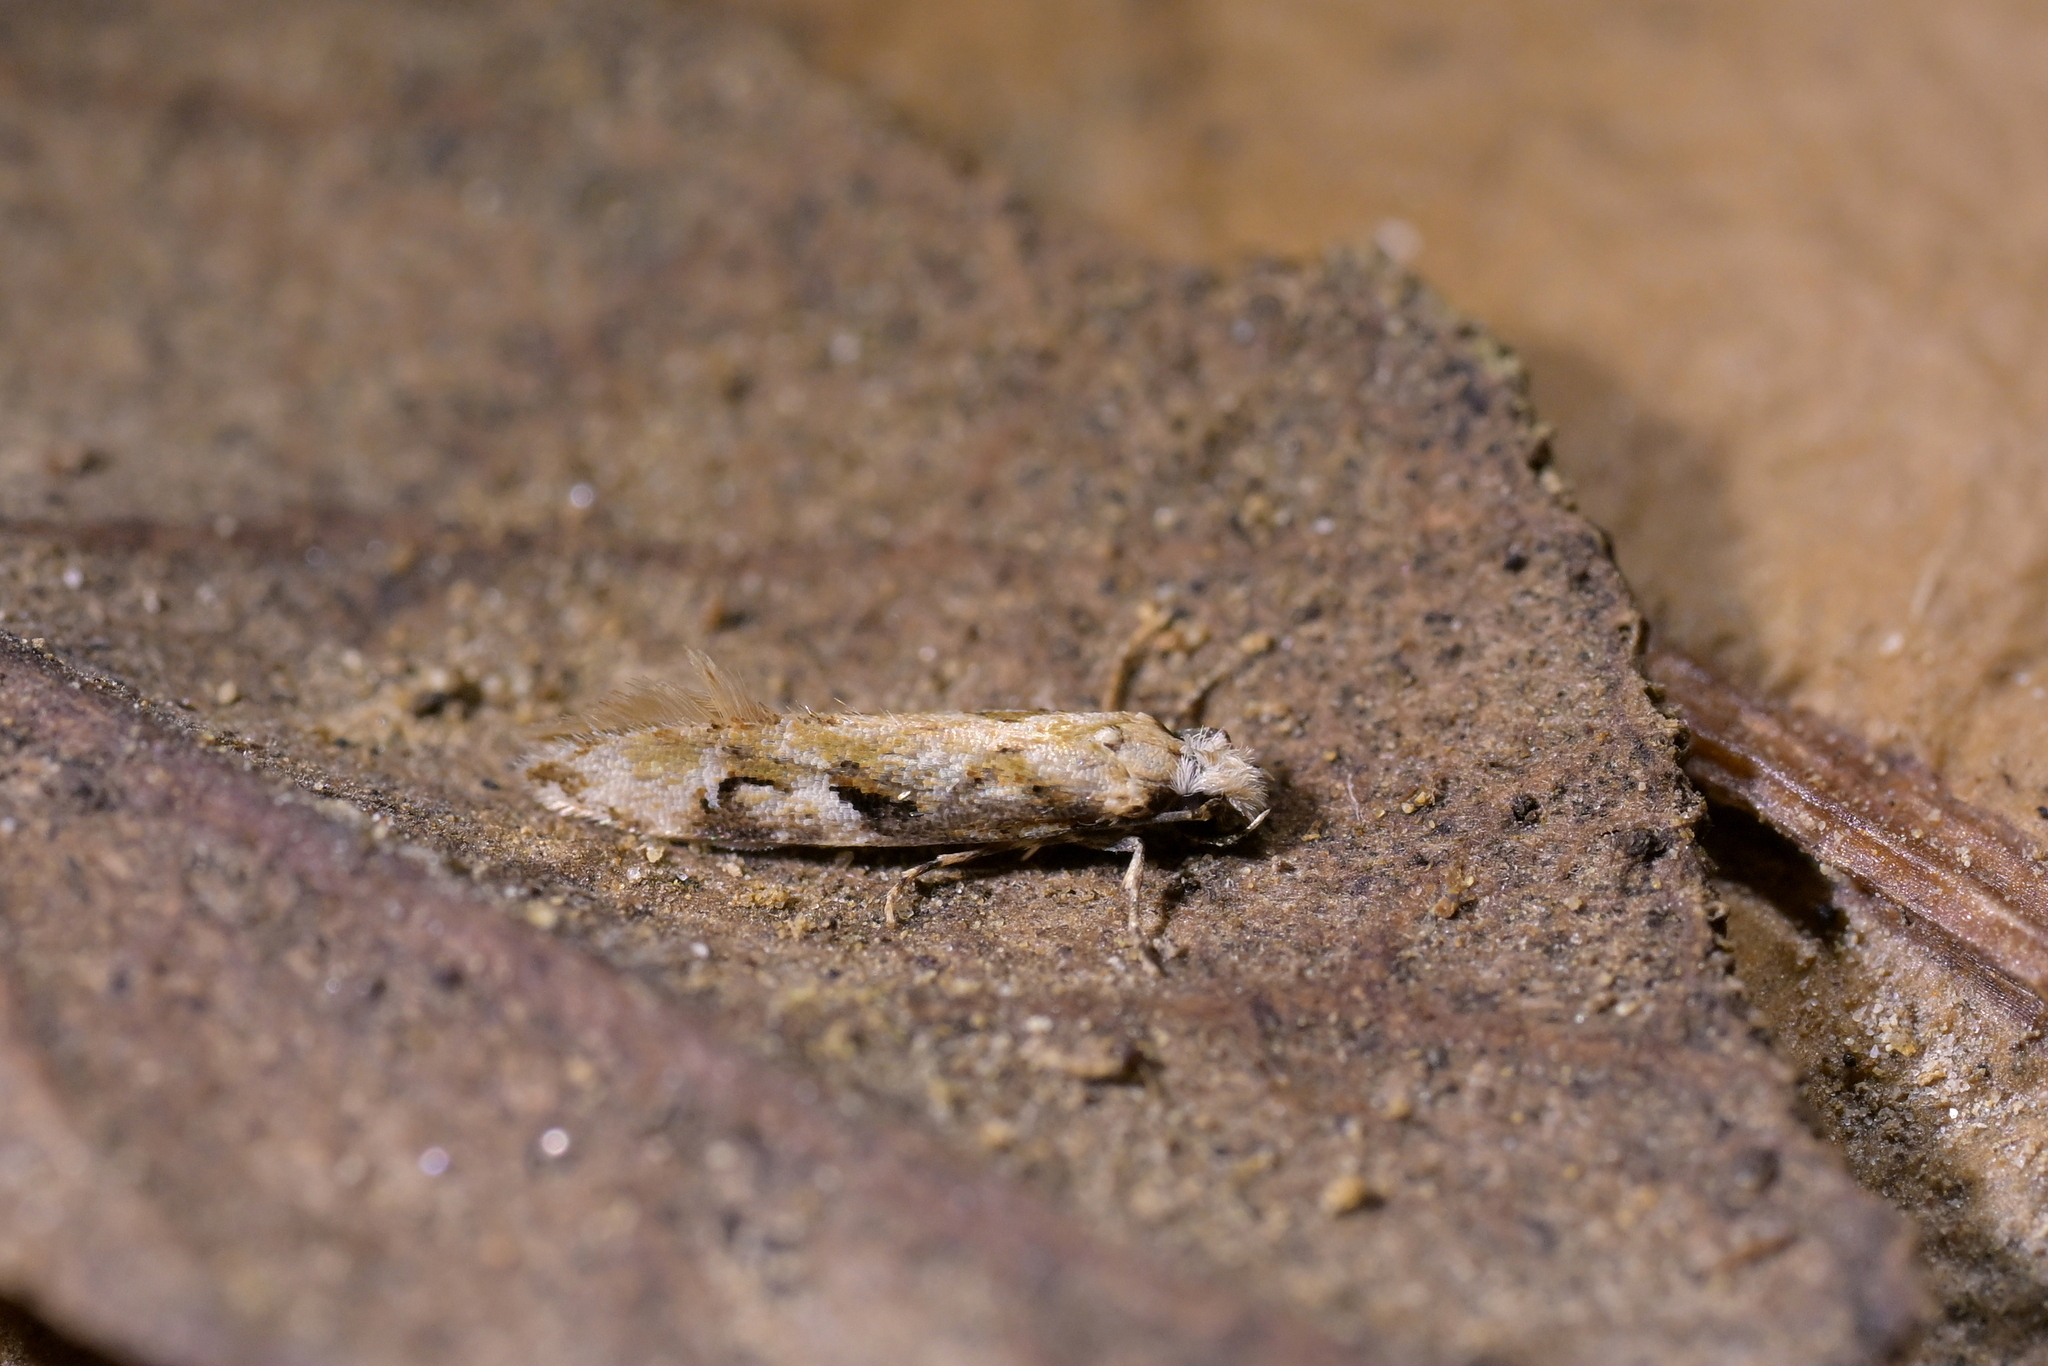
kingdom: Animalia
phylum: Arthropoda
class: Insecta
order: Lepidoptera
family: Tineidae
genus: Crypsitricha
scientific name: Crypsitricha mesotypa
